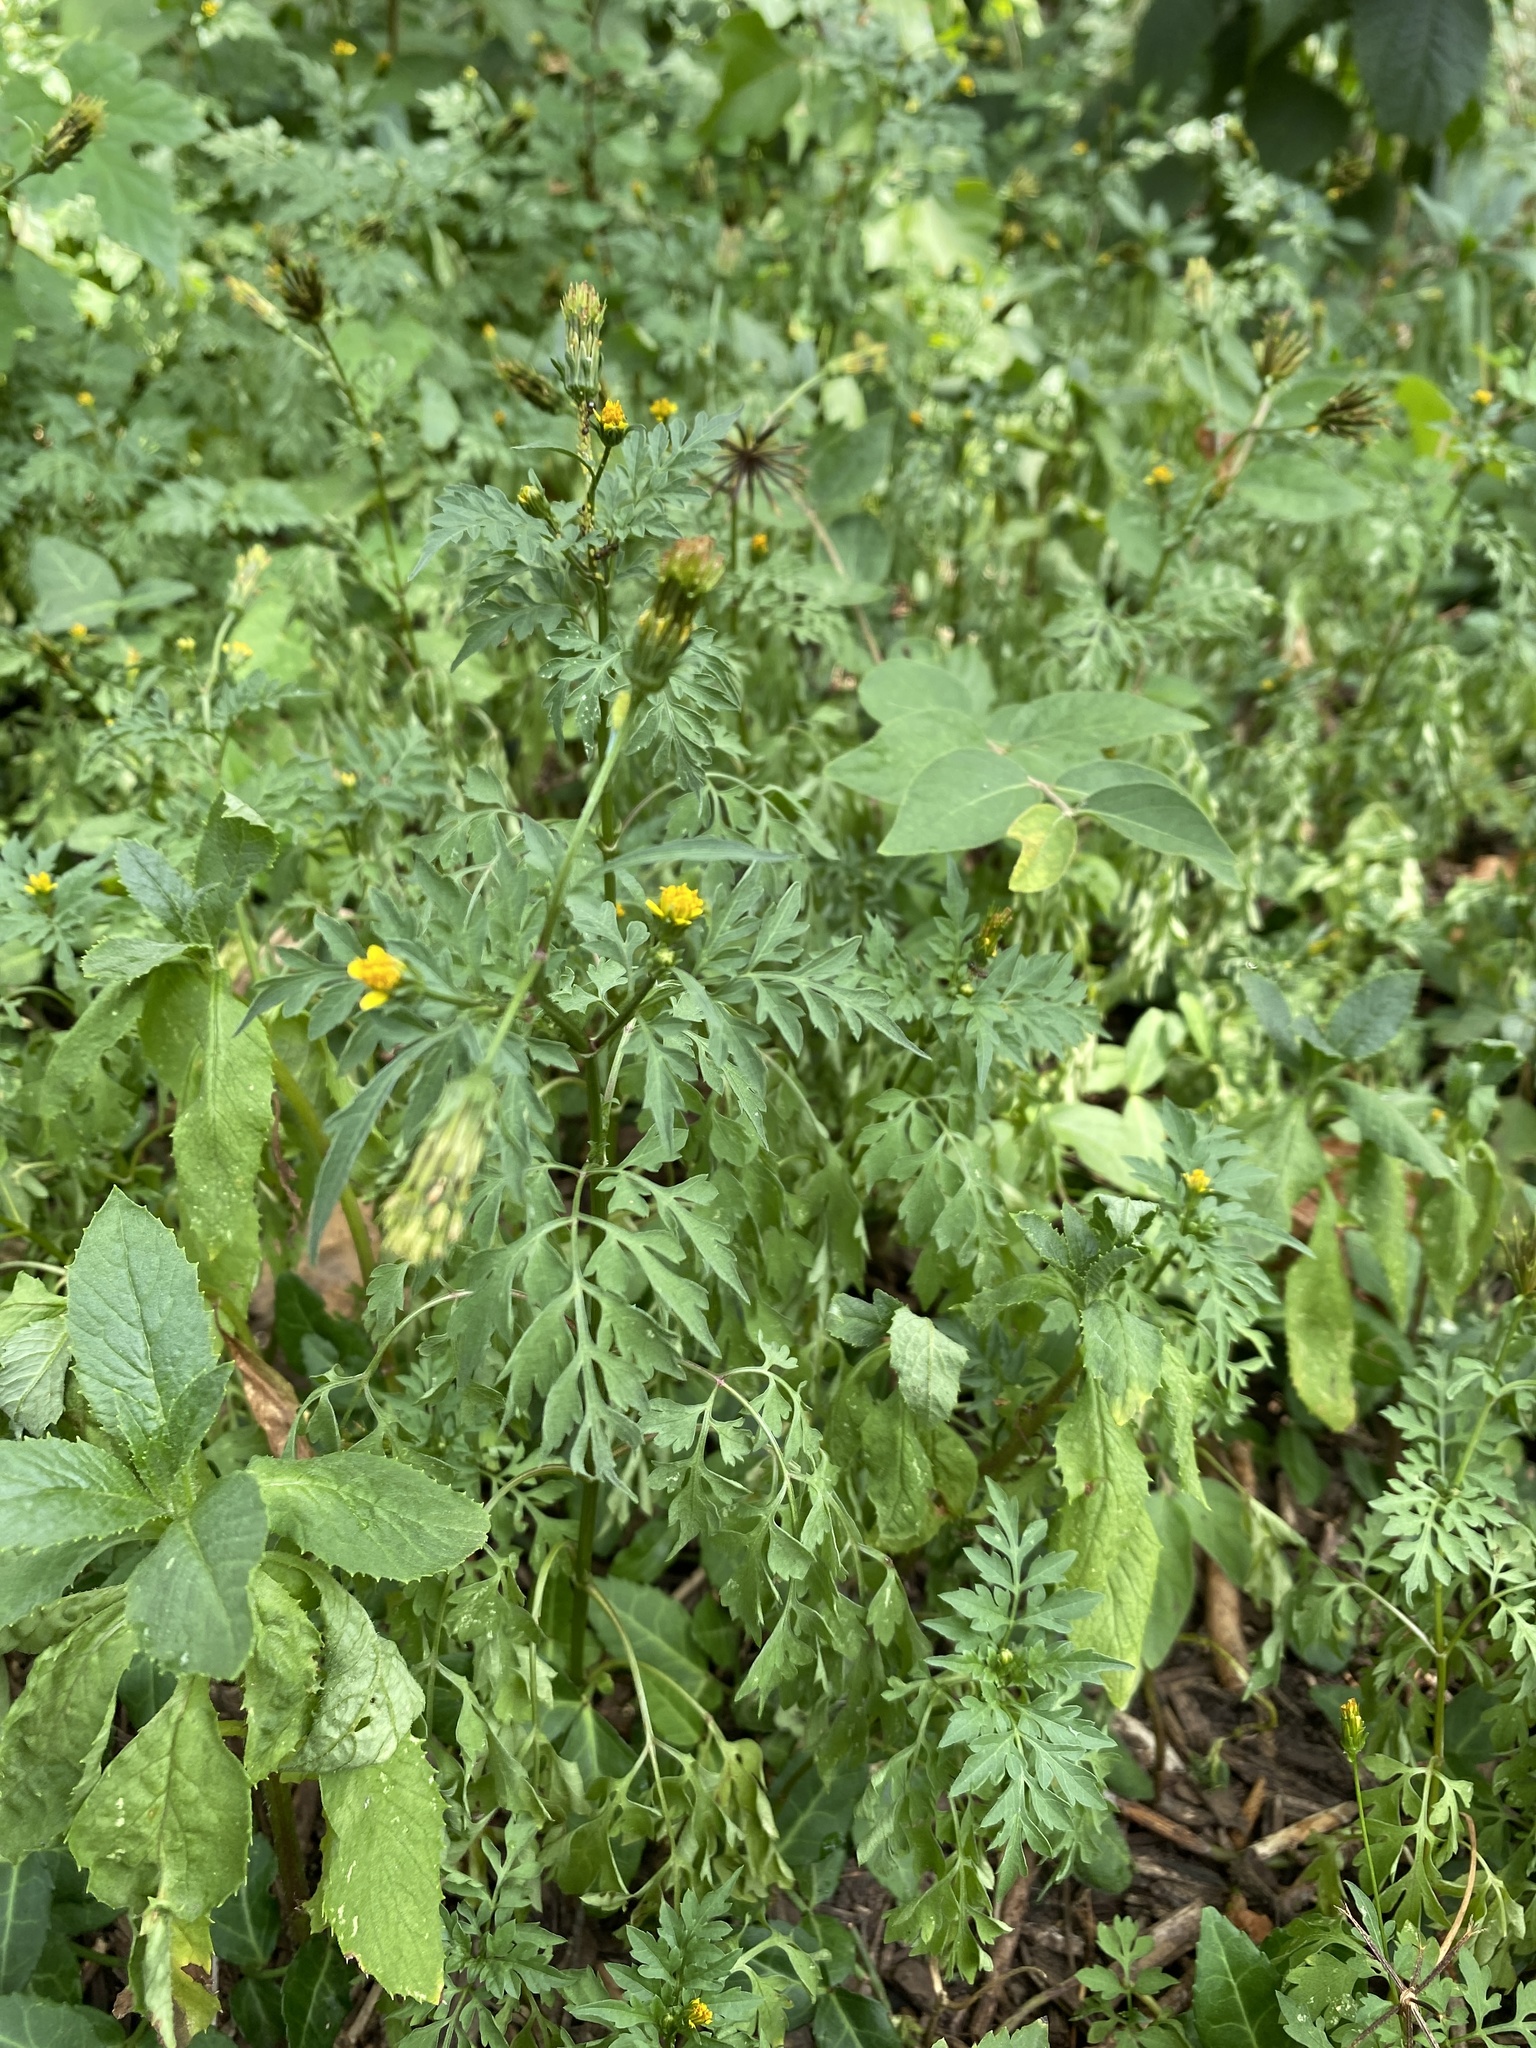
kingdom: Plantae
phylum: Tracheophyta
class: Magnoliopsida
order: Asterales
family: Asteraceae
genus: Bidens
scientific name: Bidens bipinnata
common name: Spanish-needles
